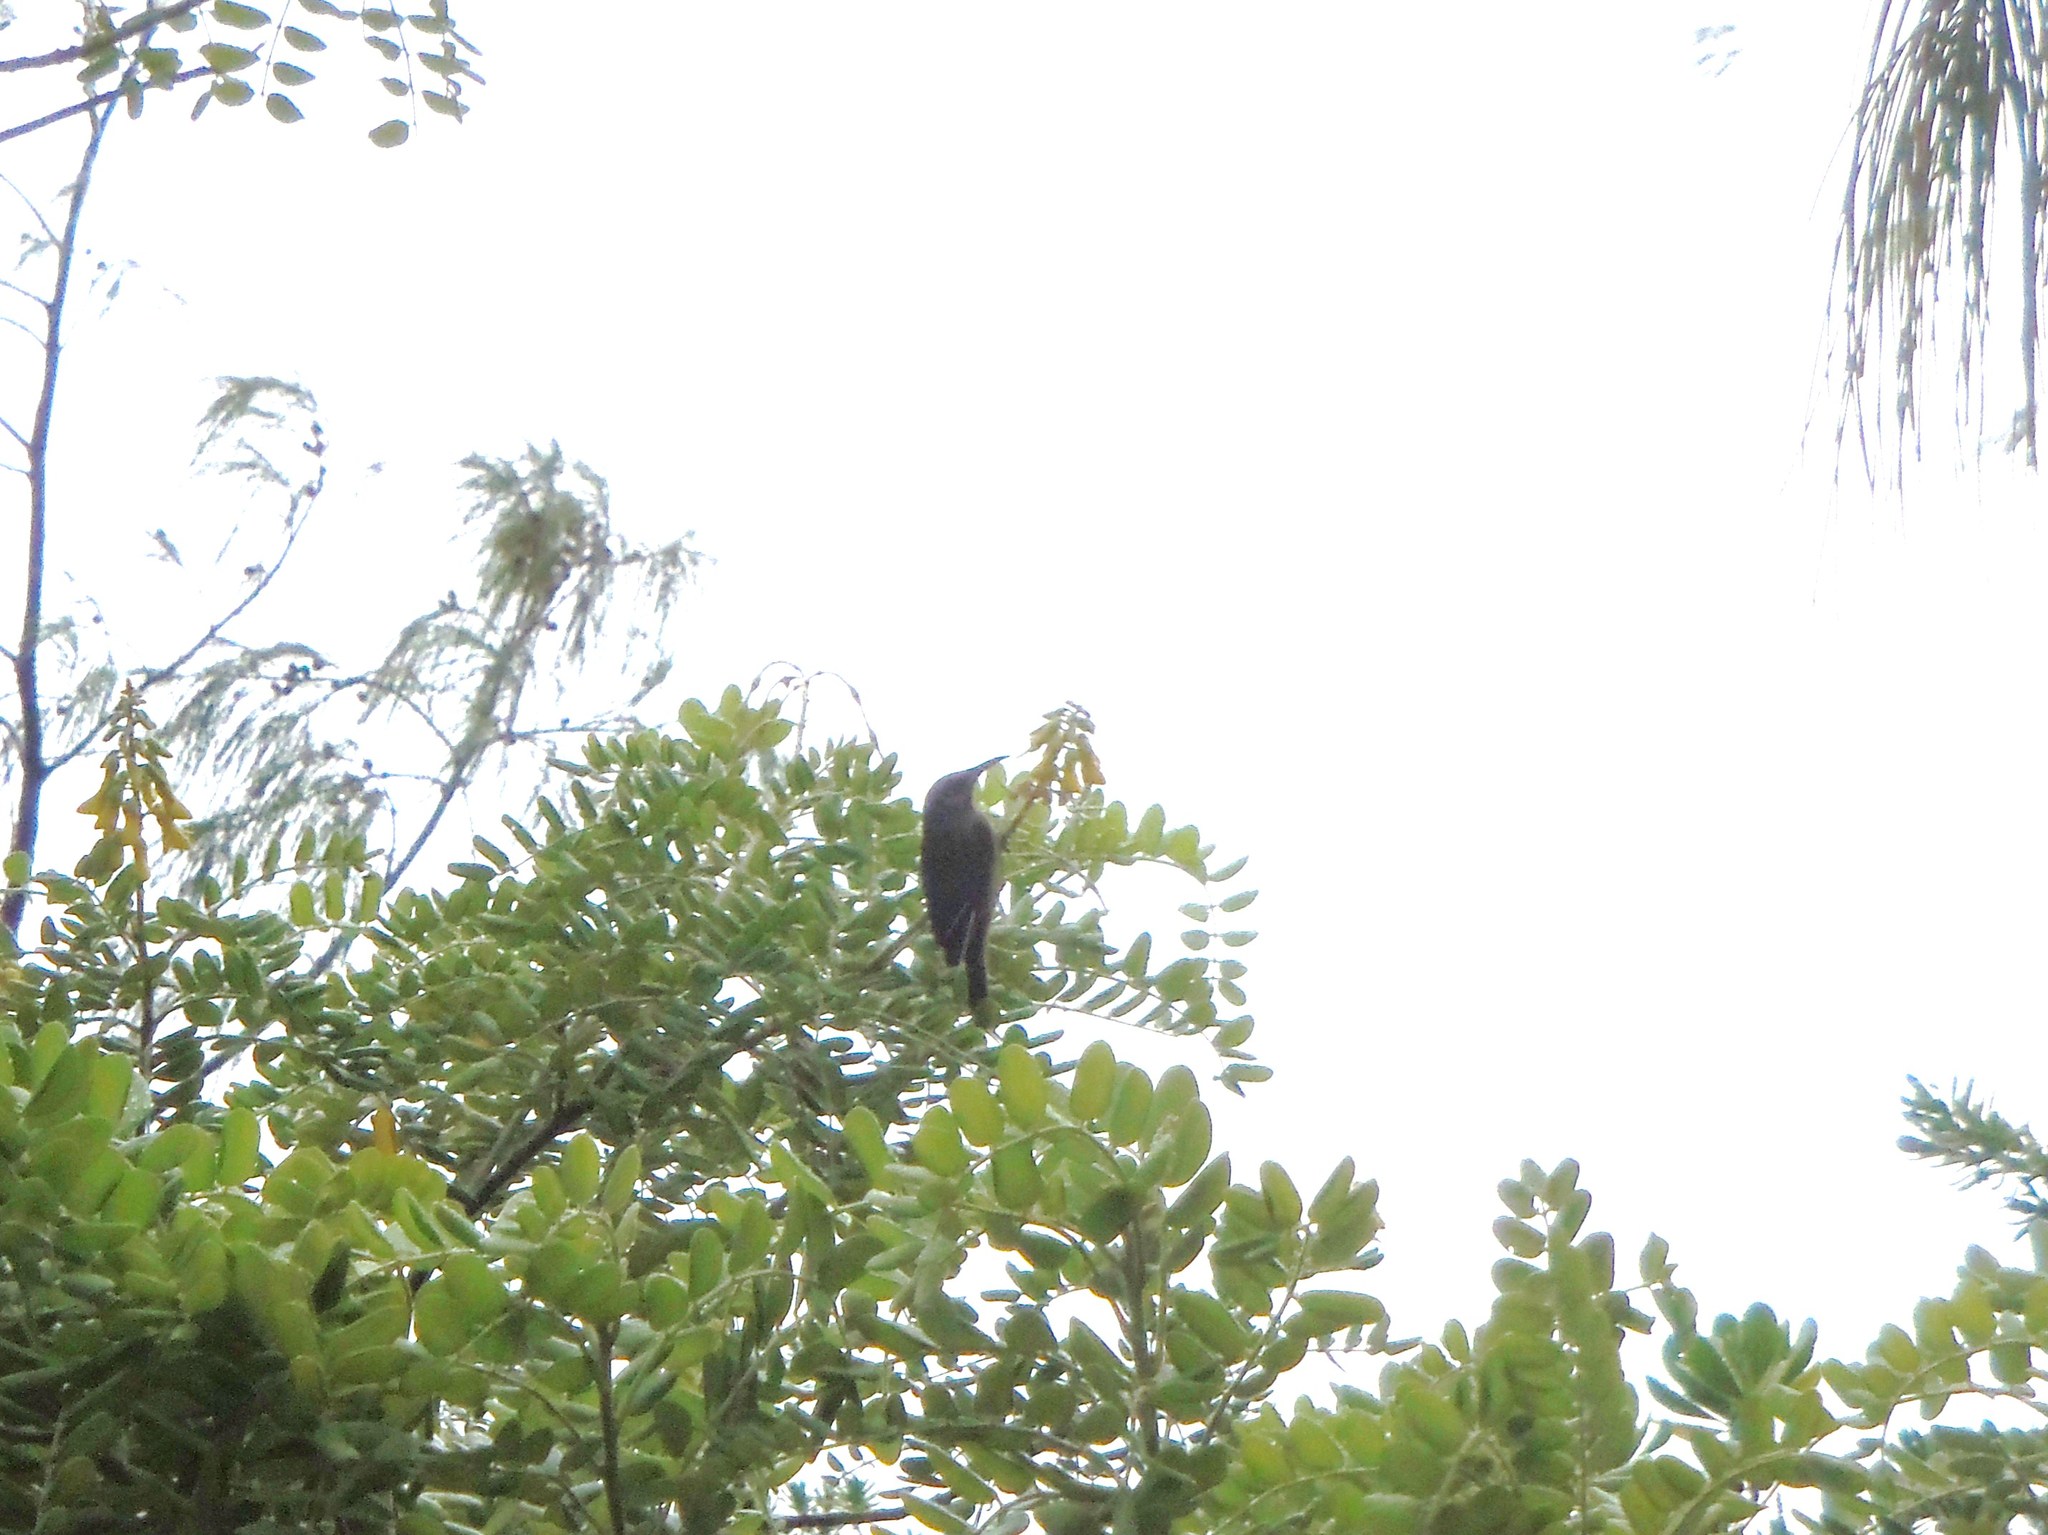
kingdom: Animalia
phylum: Chordata
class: Aves
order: Passeriformes
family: Meliphagidae
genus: Lichmera
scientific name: Lichmera incana
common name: Grey-eared honeyeater
